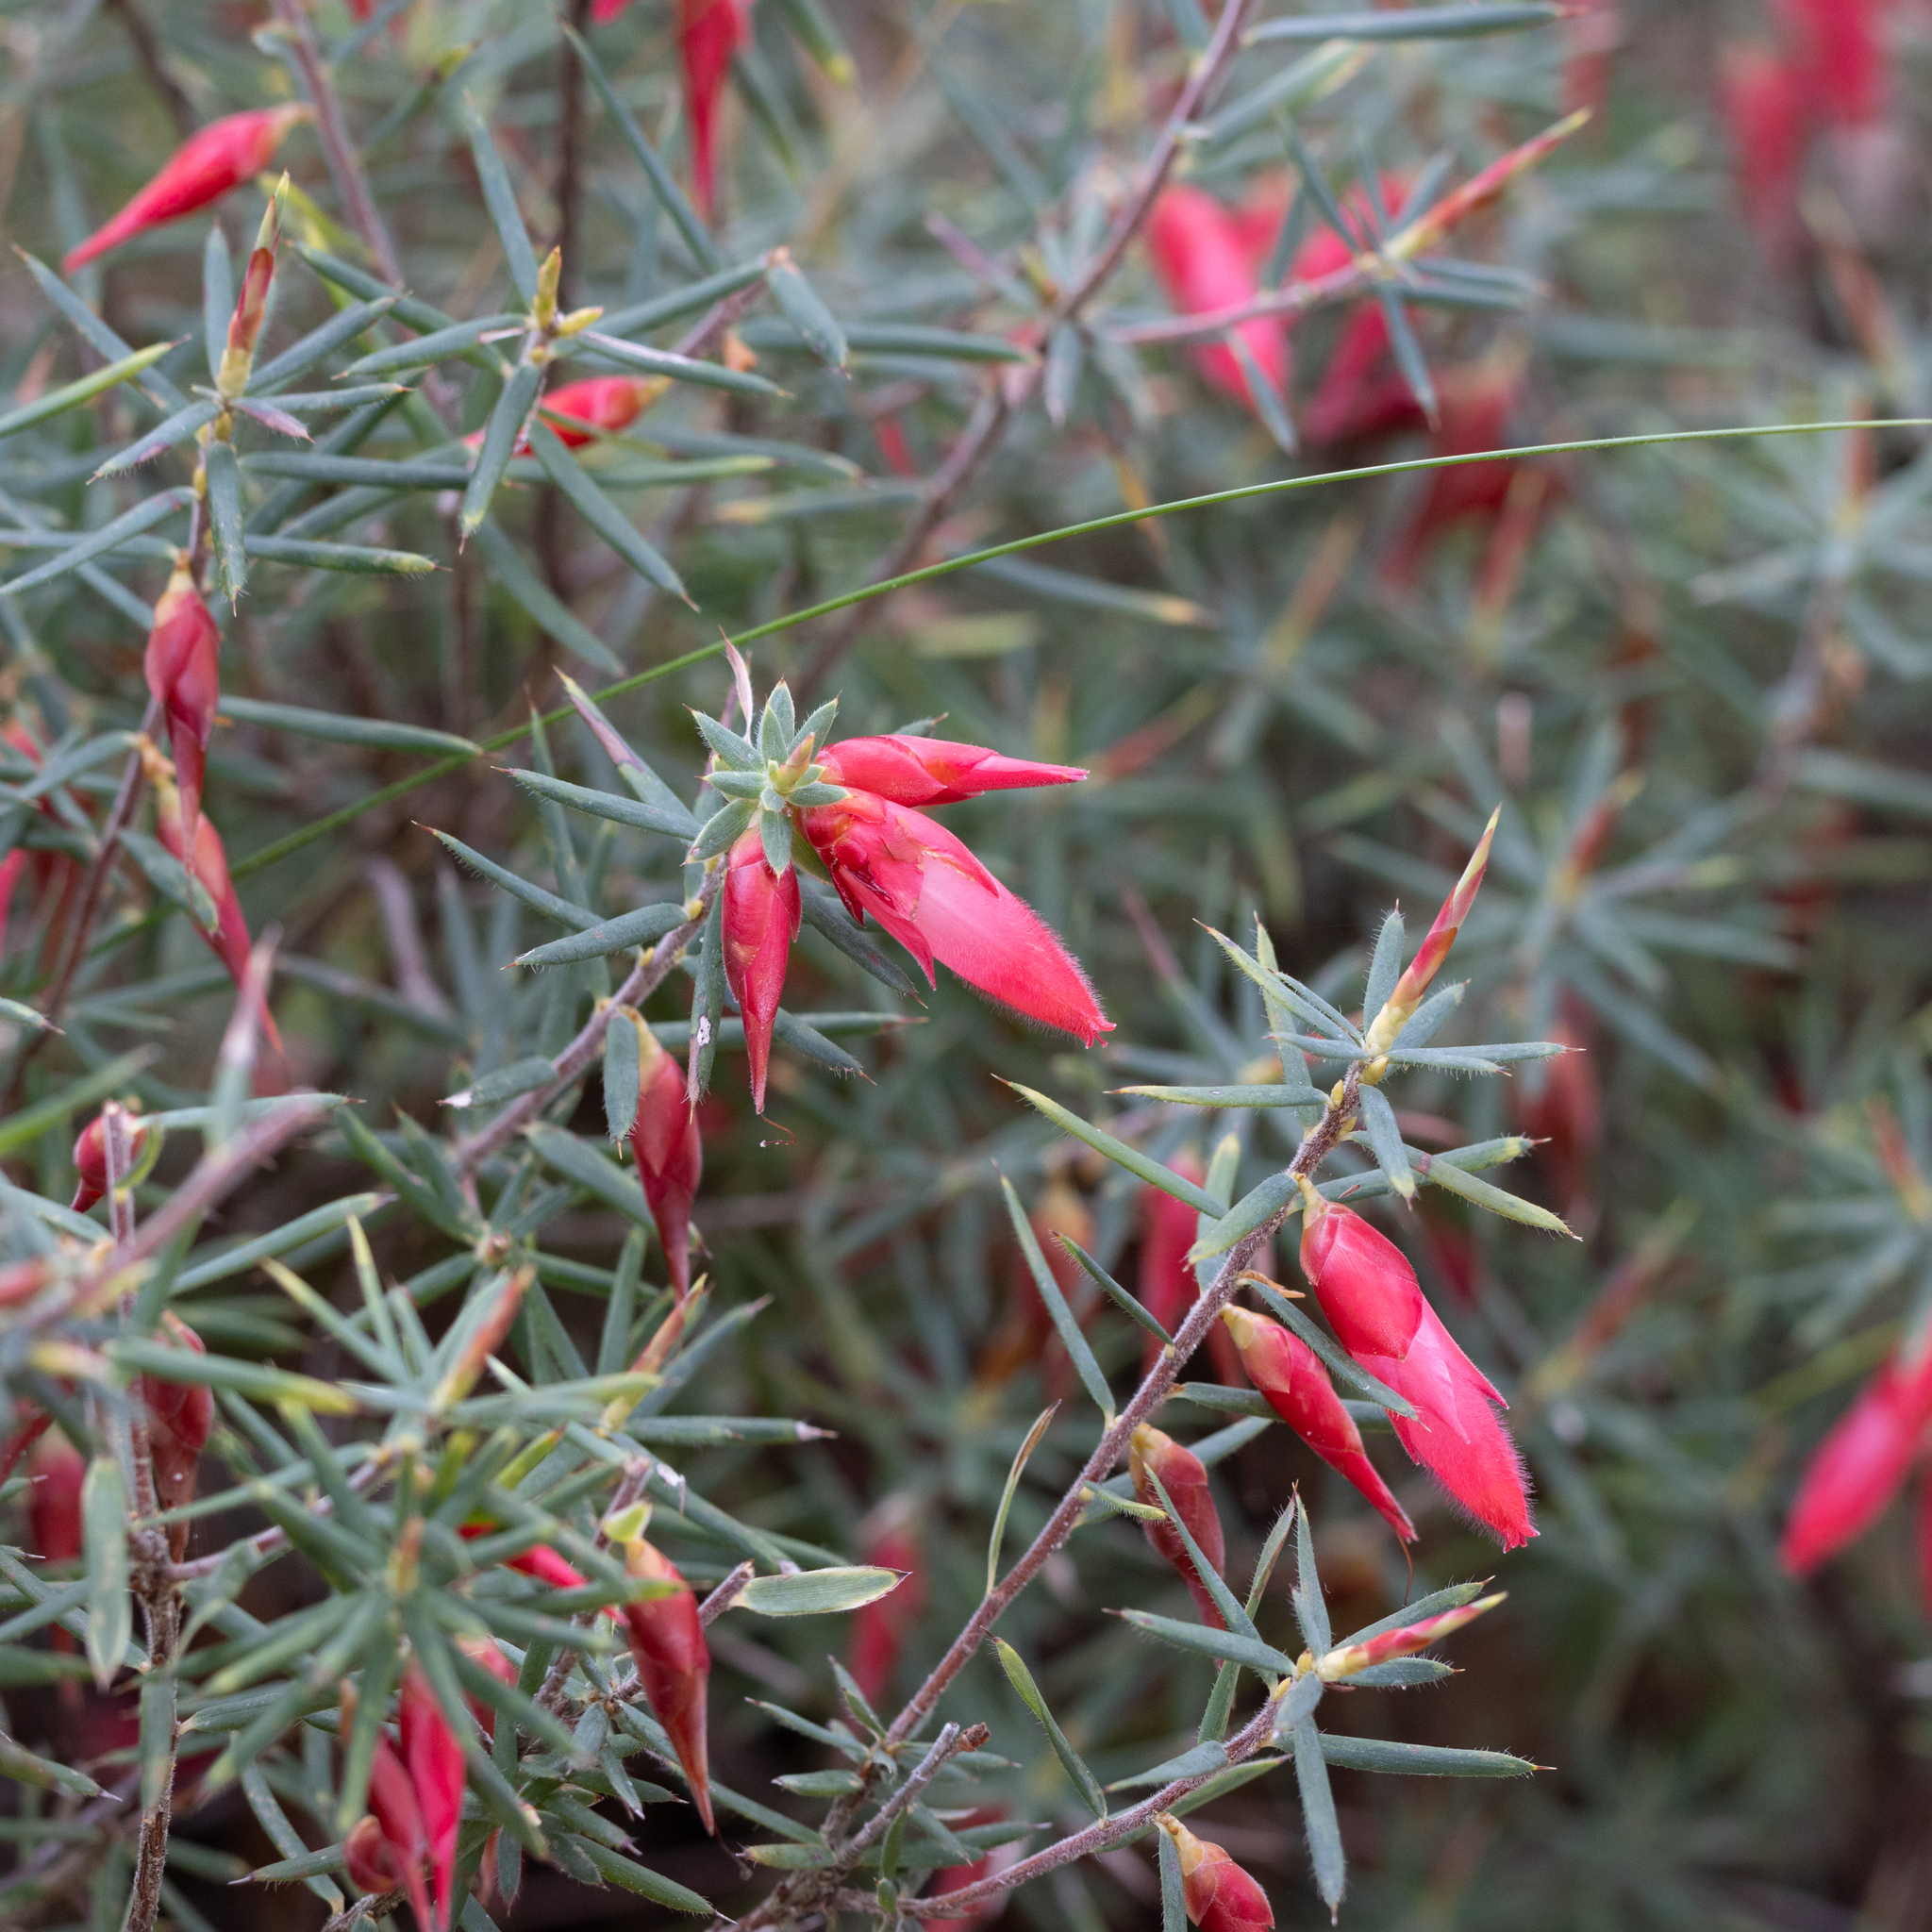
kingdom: Plantae
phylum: Tracheophyta
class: Magnoliopsida
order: Ericales
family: Ericaceae
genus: Stenanthera
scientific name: Stenanthera conostephioides
